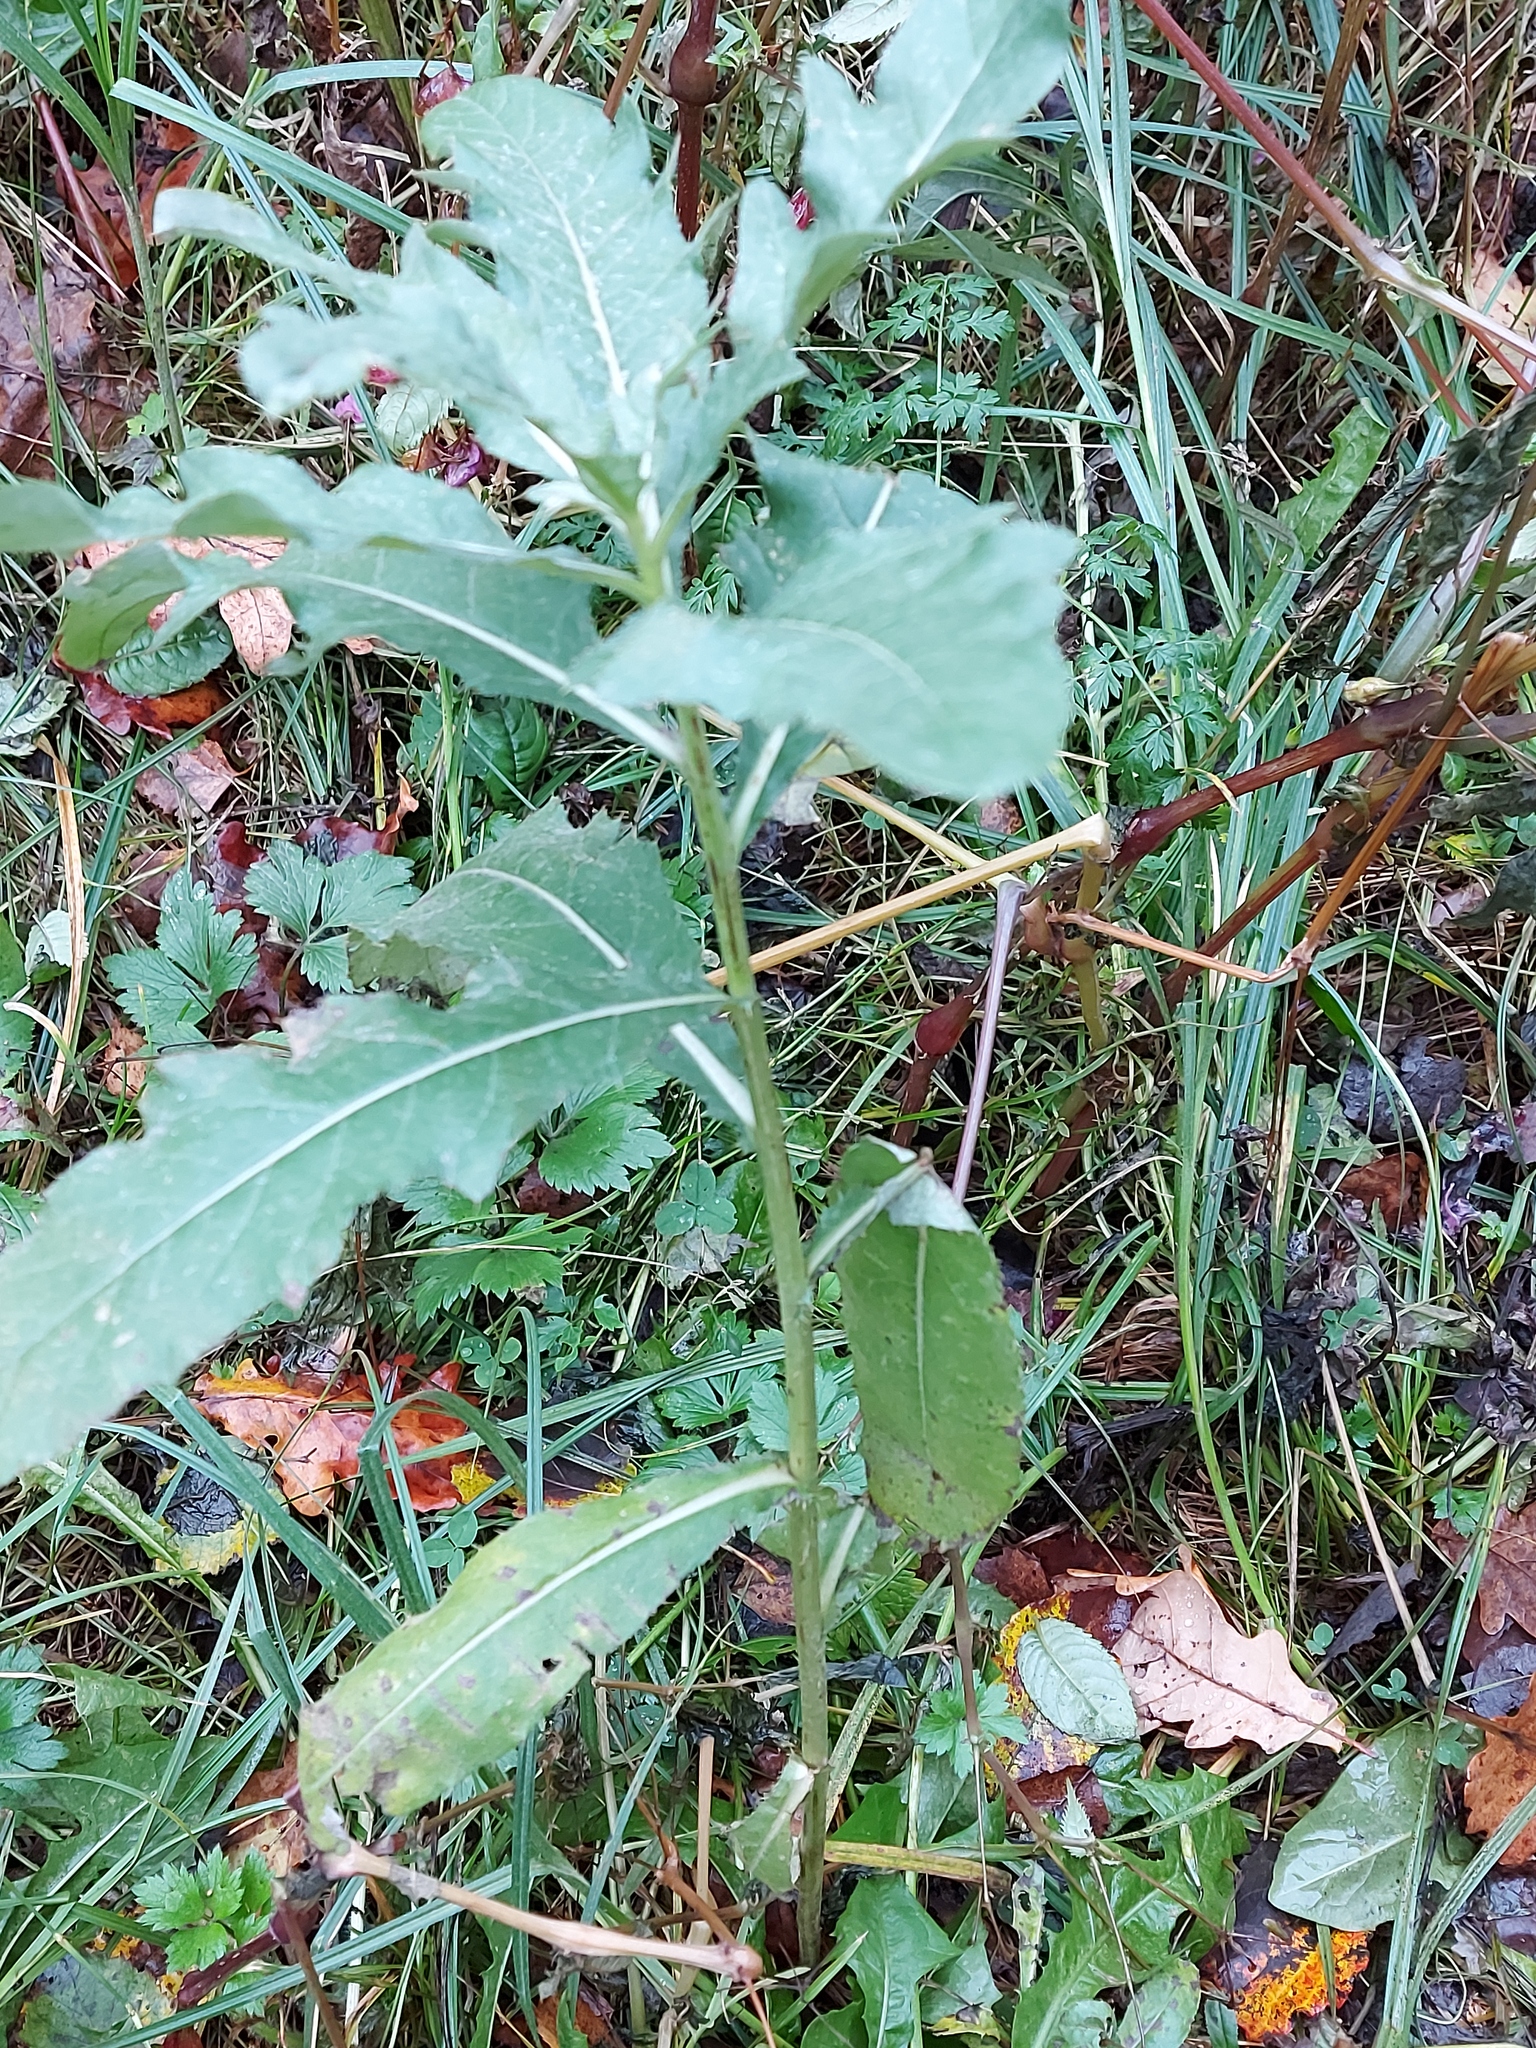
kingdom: Plantae
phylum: Tracheophyta
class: Magnoliopsida
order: Asterales
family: Asteraceae
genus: Cirsium
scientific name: Cirsium arvense
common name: Creeping thistle
